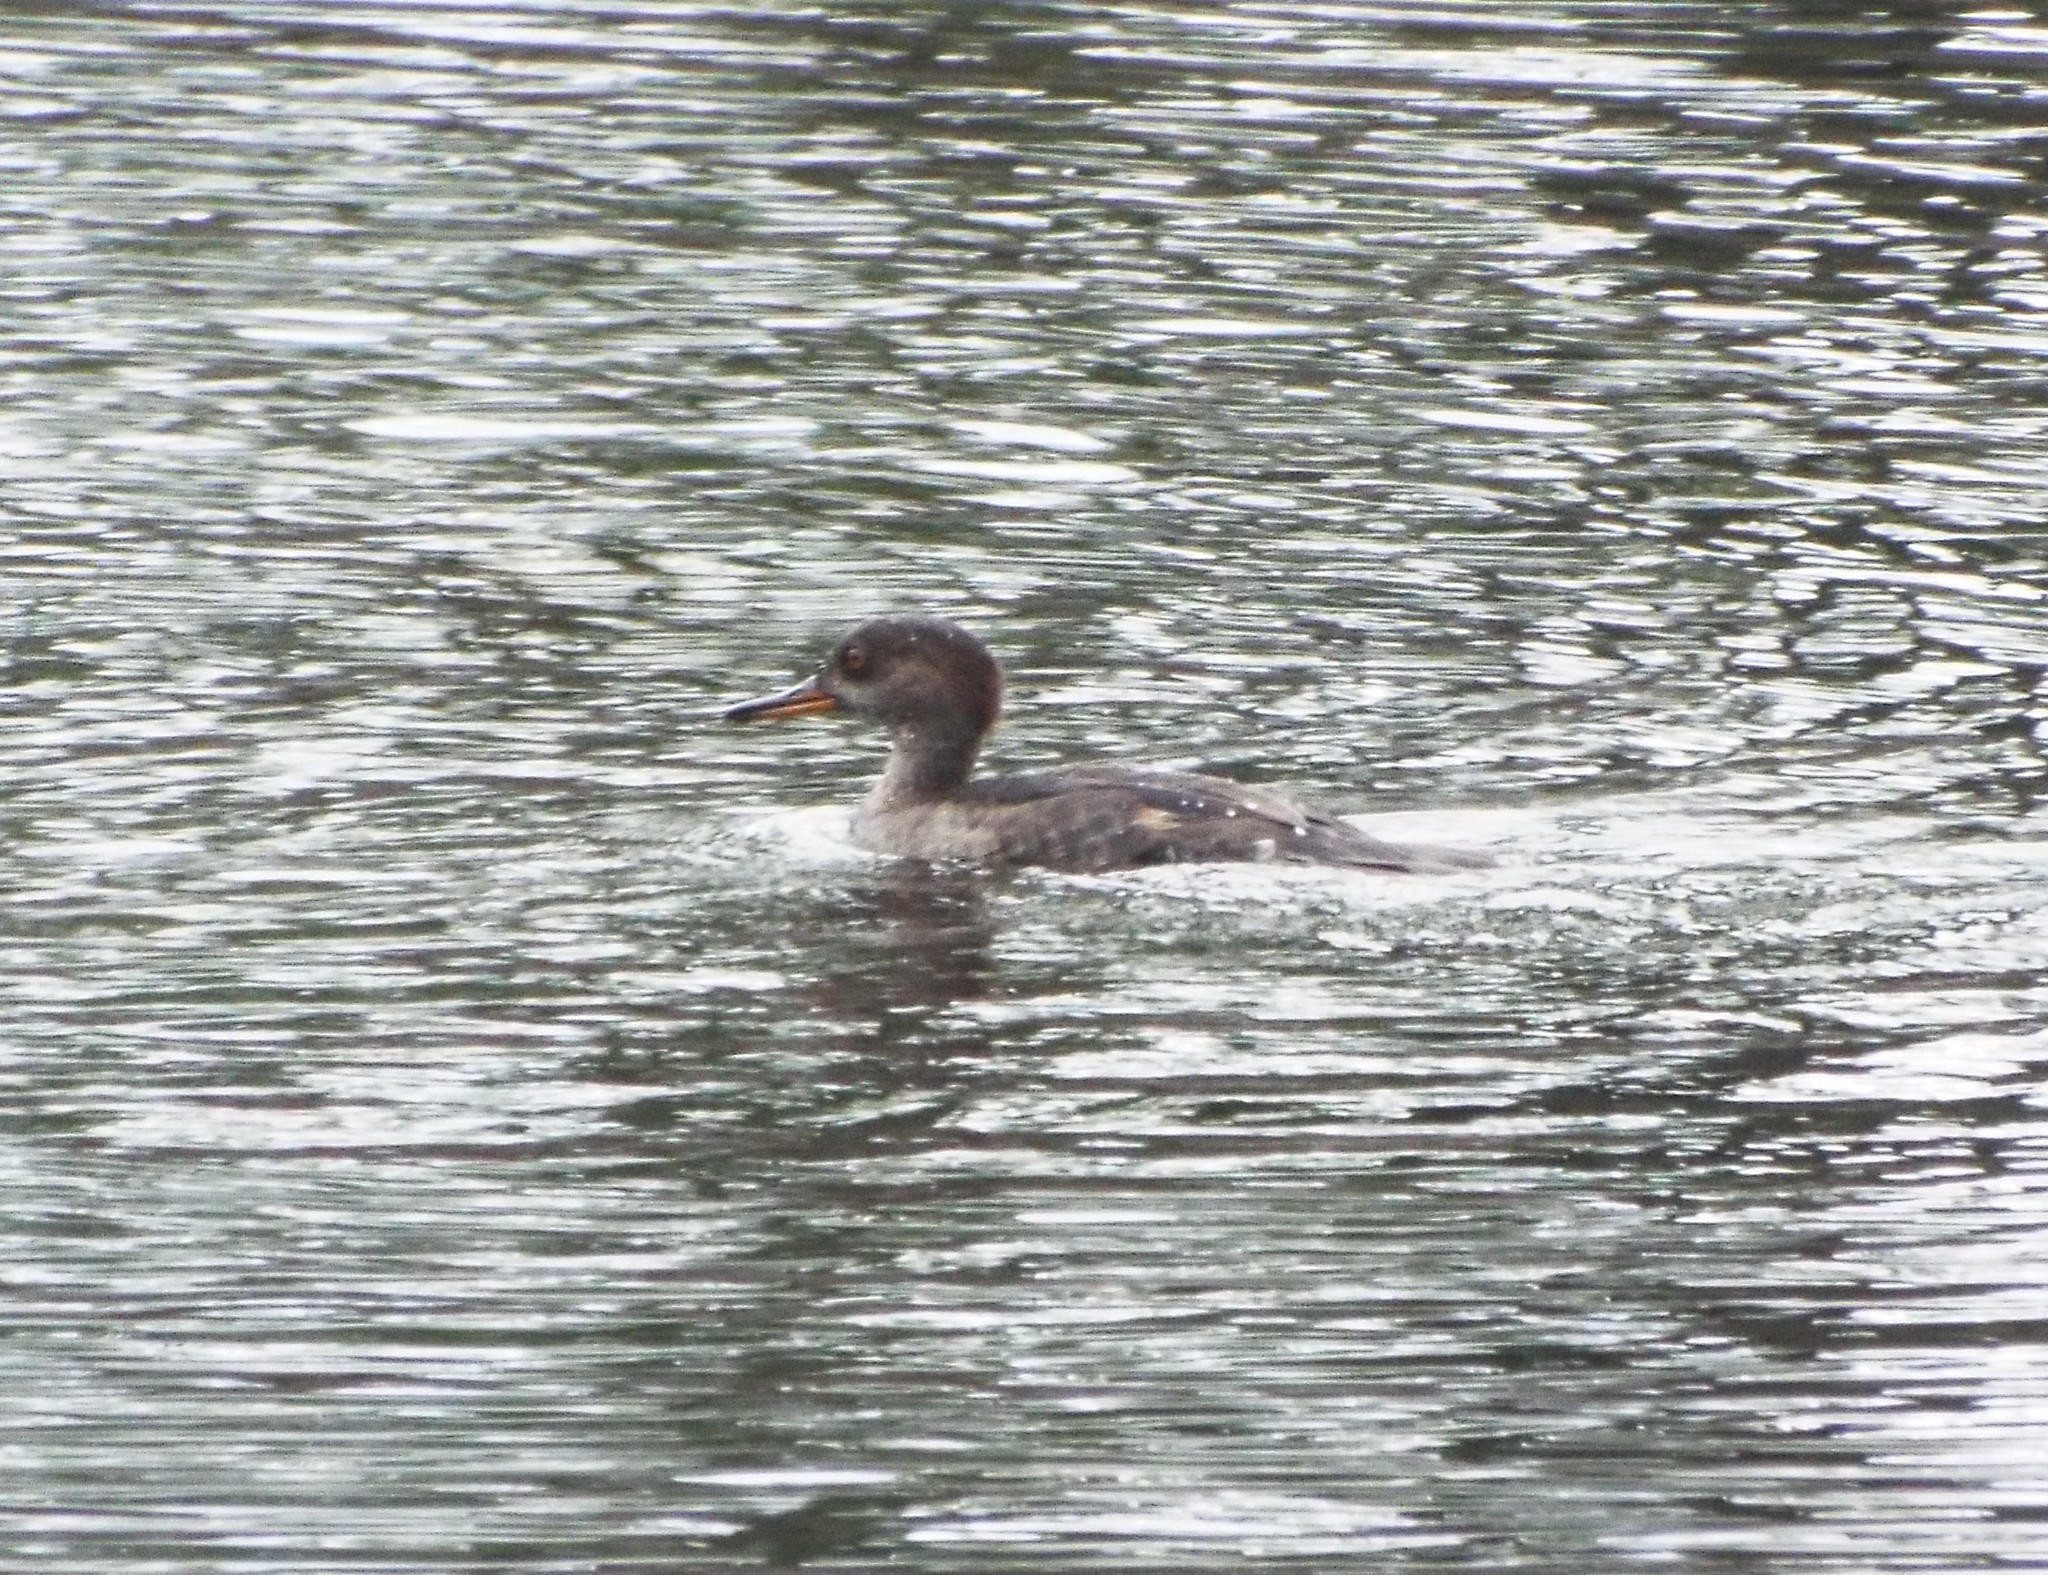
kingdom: Animalia
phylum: Chordata
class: Aves
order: Anseriformes
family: Anatidae
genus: Lophodytes
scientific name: Lophodytes cucullatus
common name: Hooded merganser
